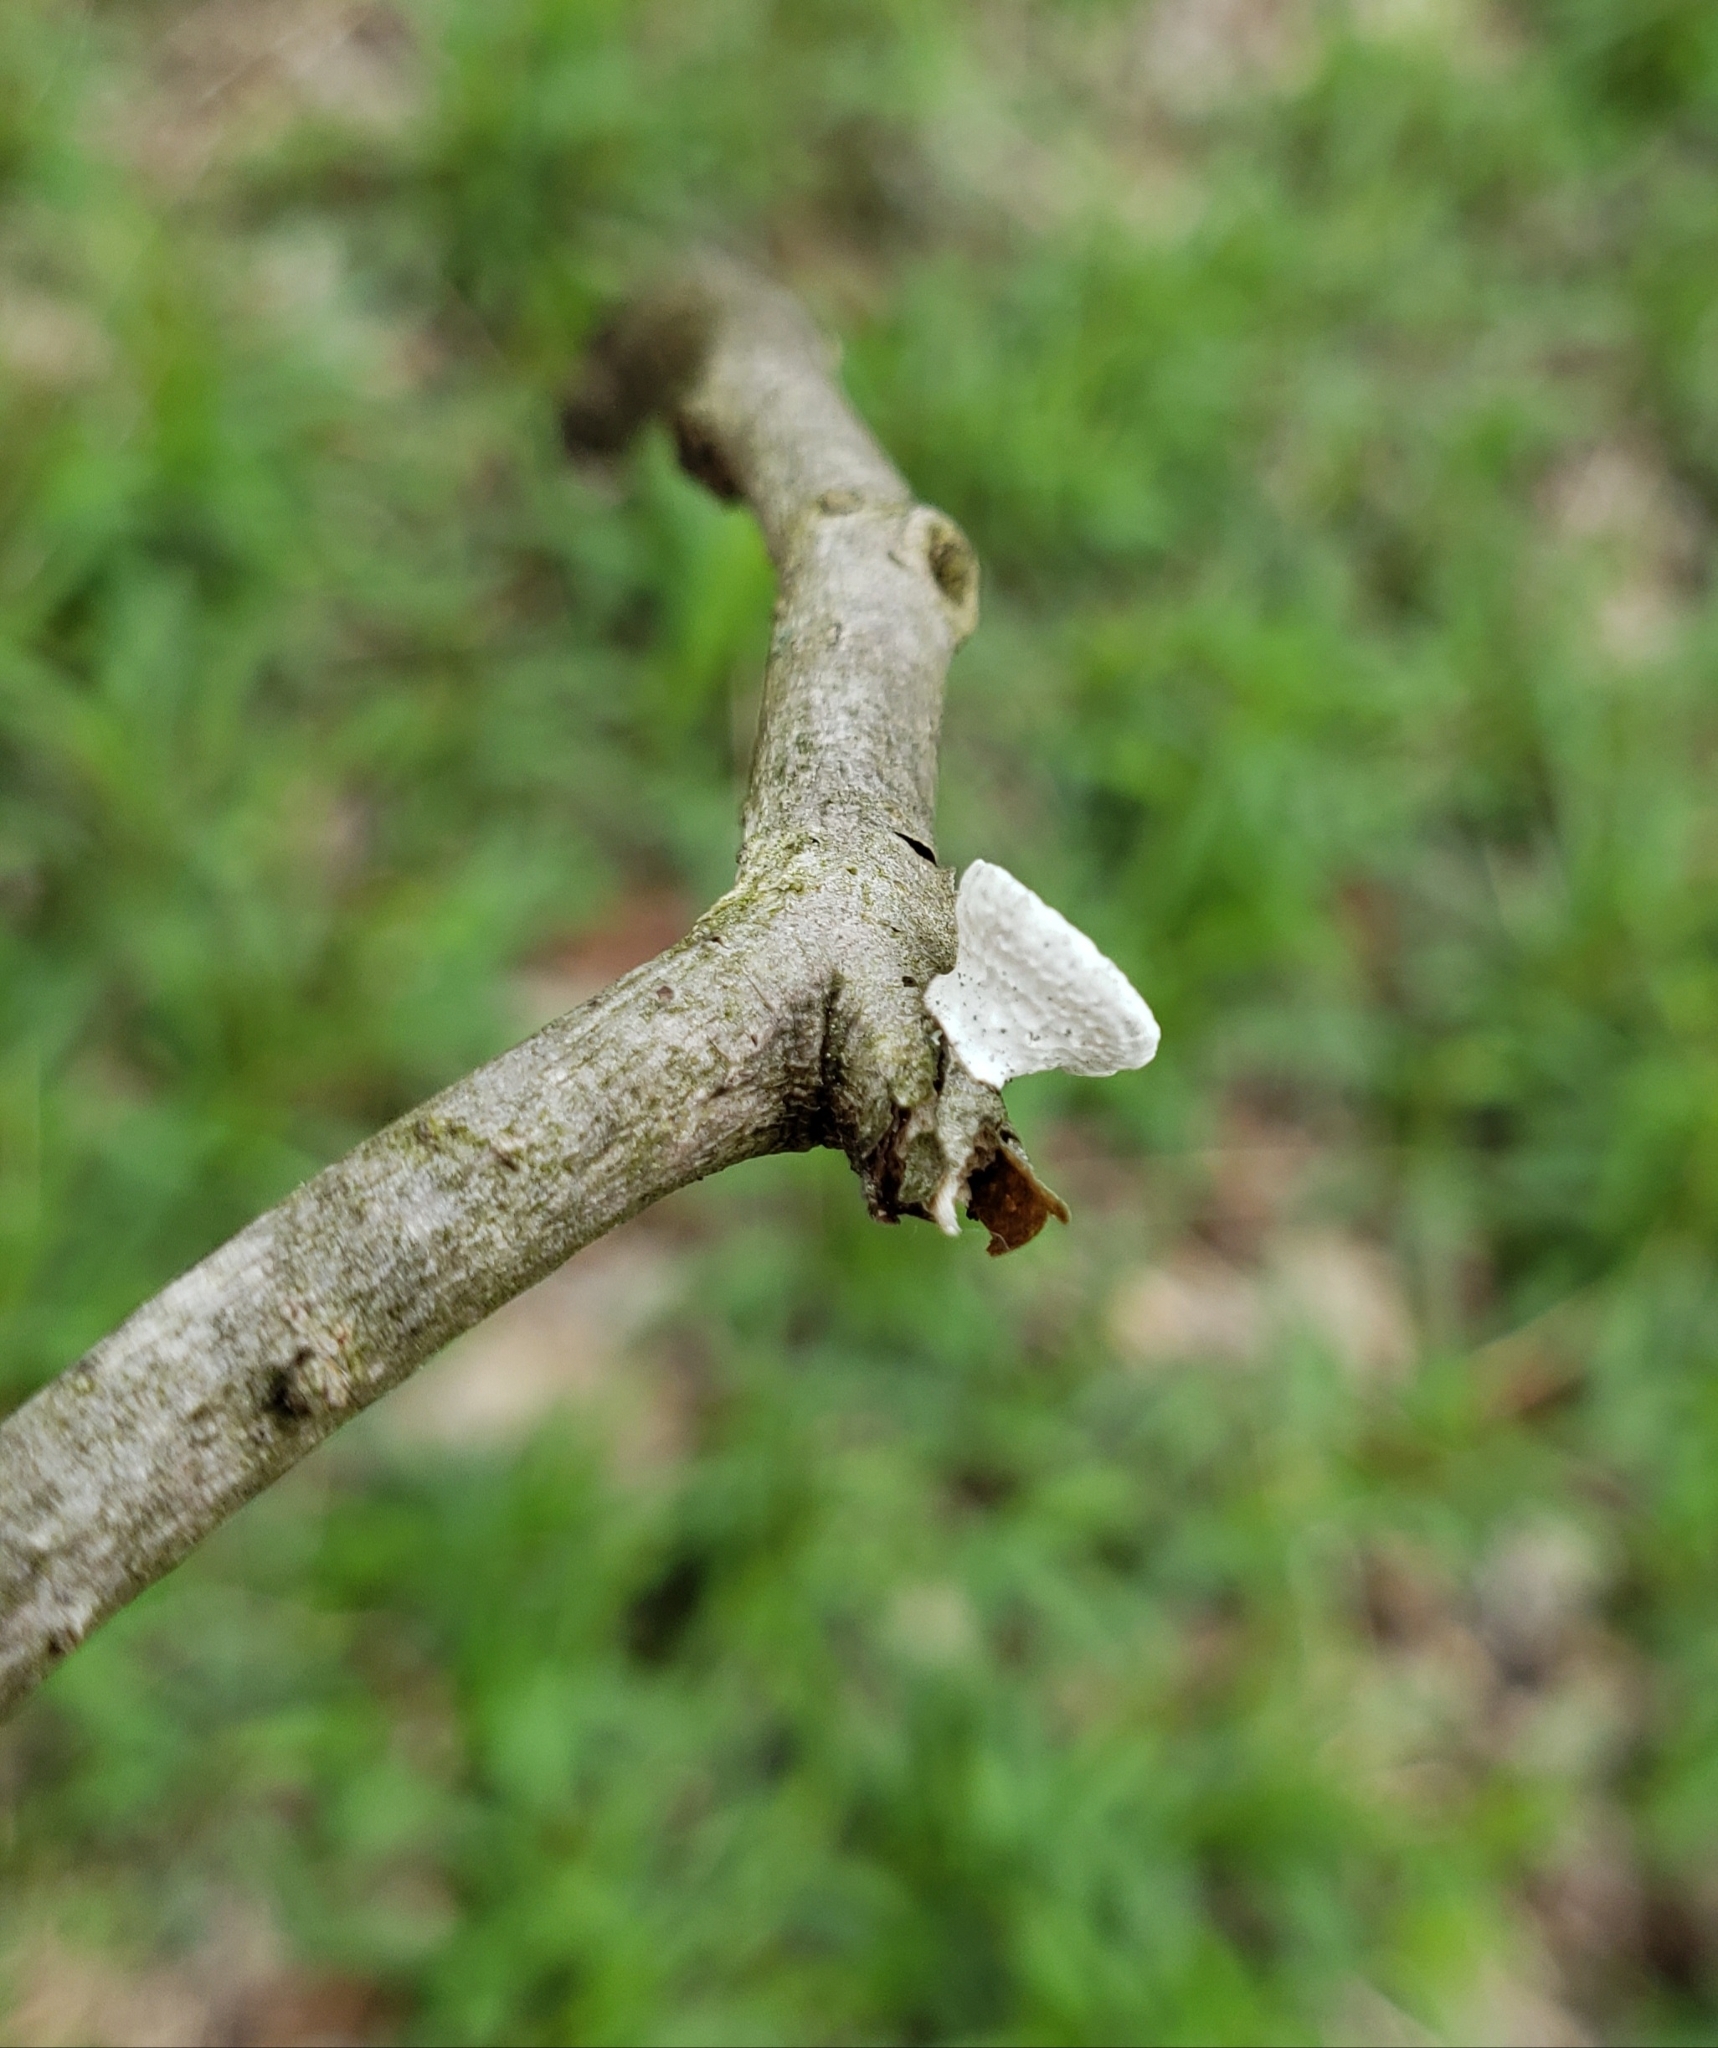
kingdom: Fungi
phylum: Basidiomycota
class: Agaricomycetes
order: Polyporales
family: Polyporaceae
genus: Poronidulus
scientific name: Poronidulus conchifer
